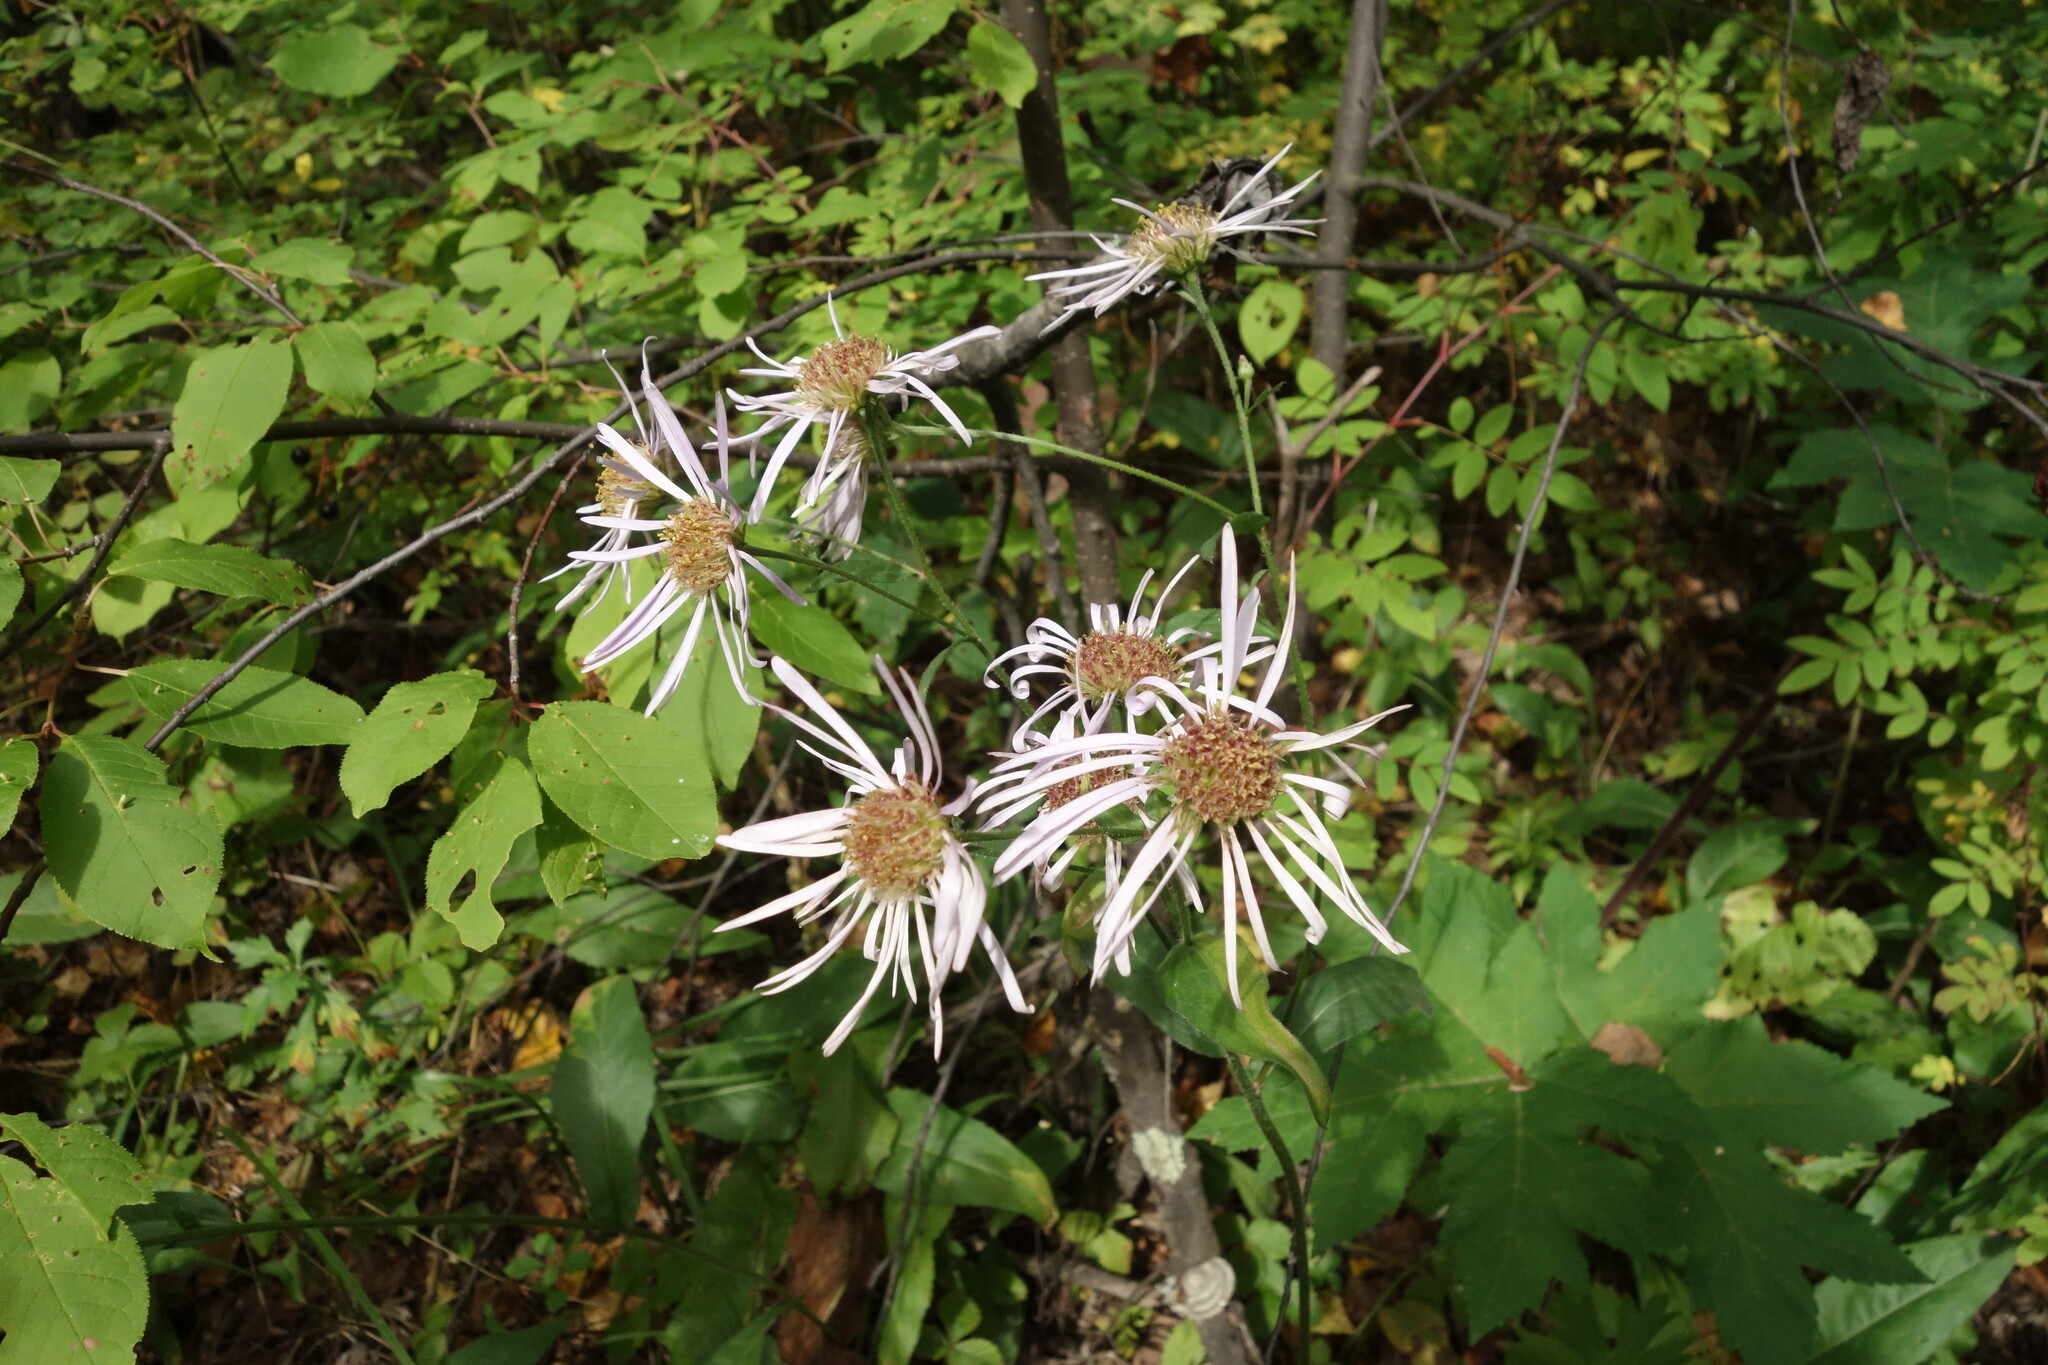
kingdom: Plantae
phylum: Tracheophyta
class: Magnoliopsida
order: Asterales
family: Asteraceae
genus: Aster
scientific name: Aster tataricus
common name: Tatarian aster
